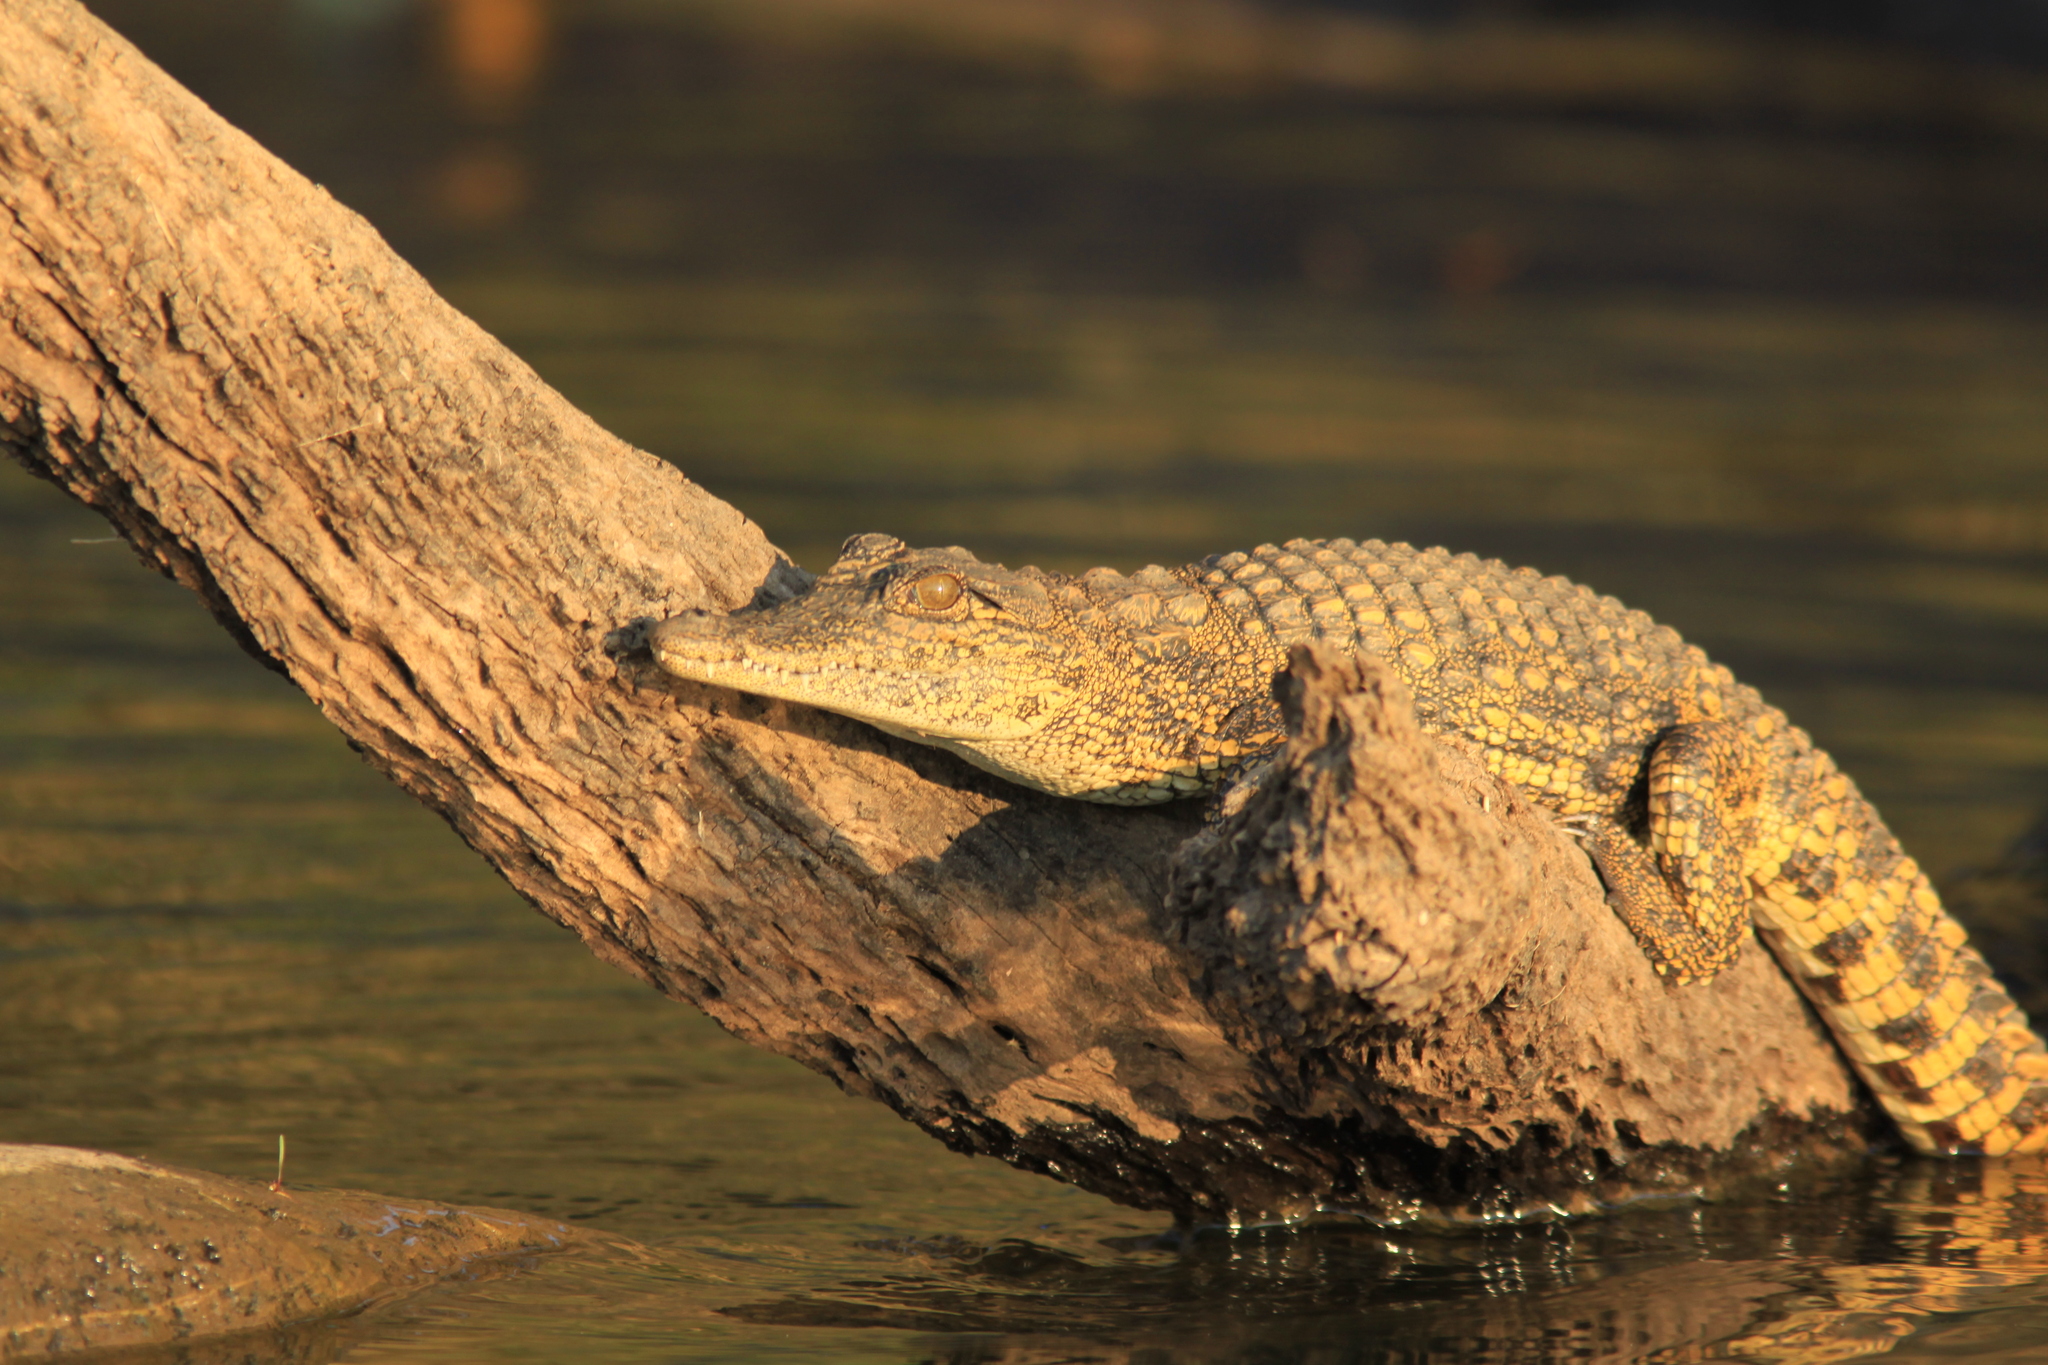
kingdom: Animalia
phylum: Chordata
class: Crocodylia
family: Crocodylidae
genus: Crocodylus
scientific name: Crocodylus niloticus
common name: Nile crocodile
